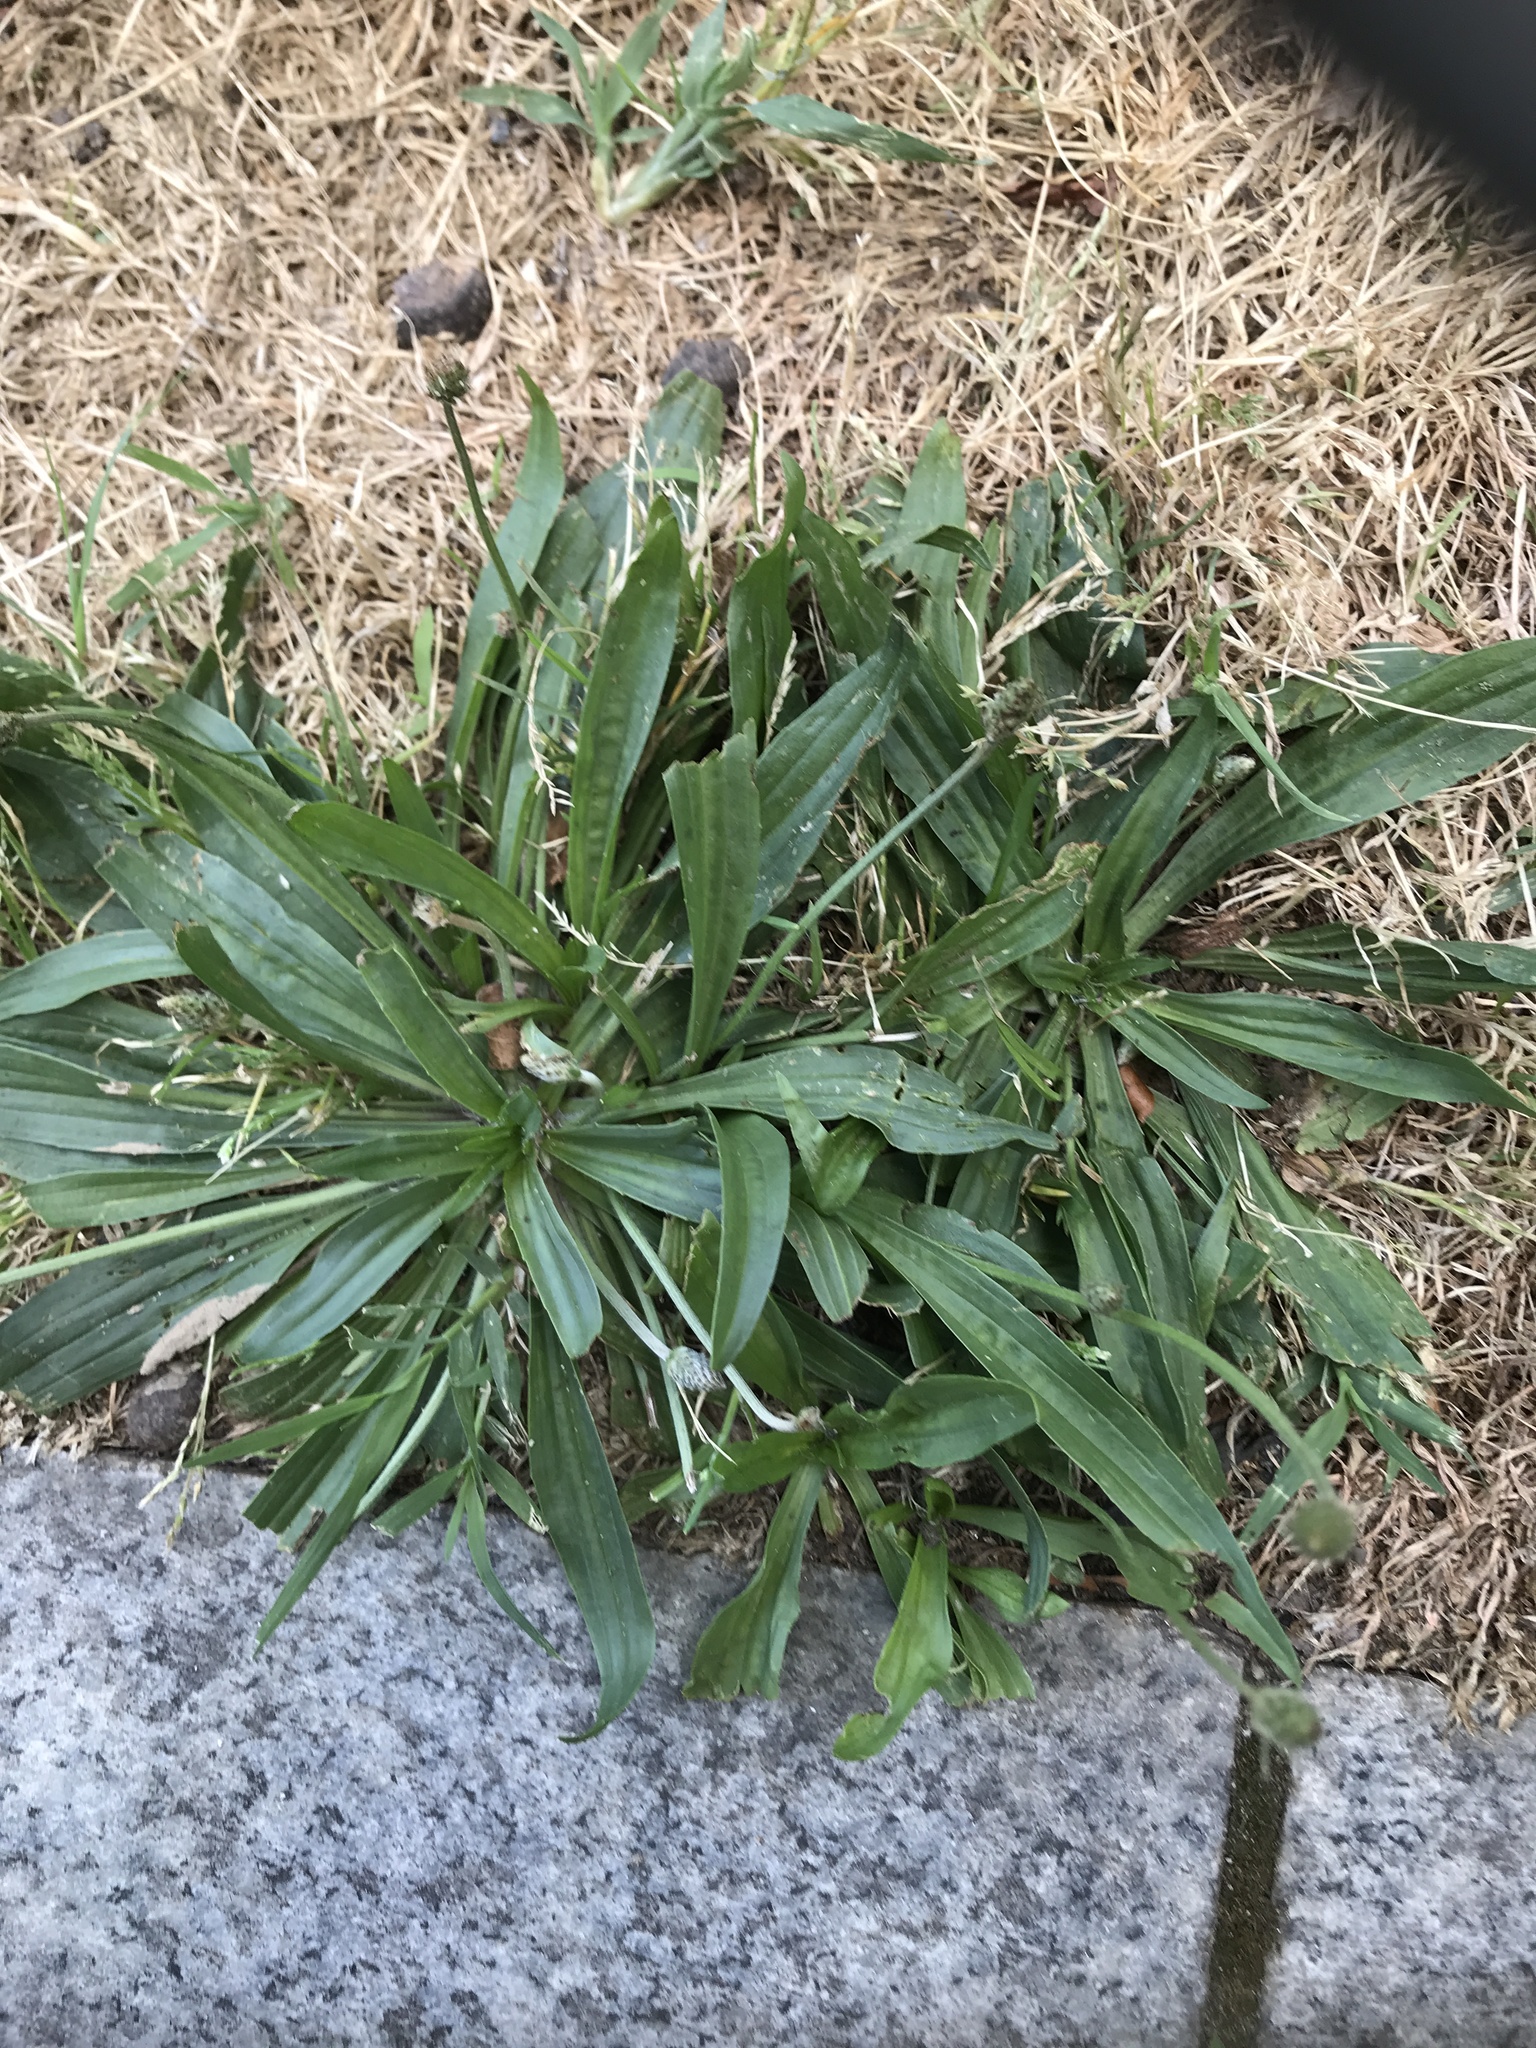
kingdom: Plantae
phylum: Tracheophyta
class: Magnoliopsida
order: Lamiales
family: Plantaginaceae
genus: Plantago
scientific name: Plantago lanceolata
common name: Ribwort plantain
